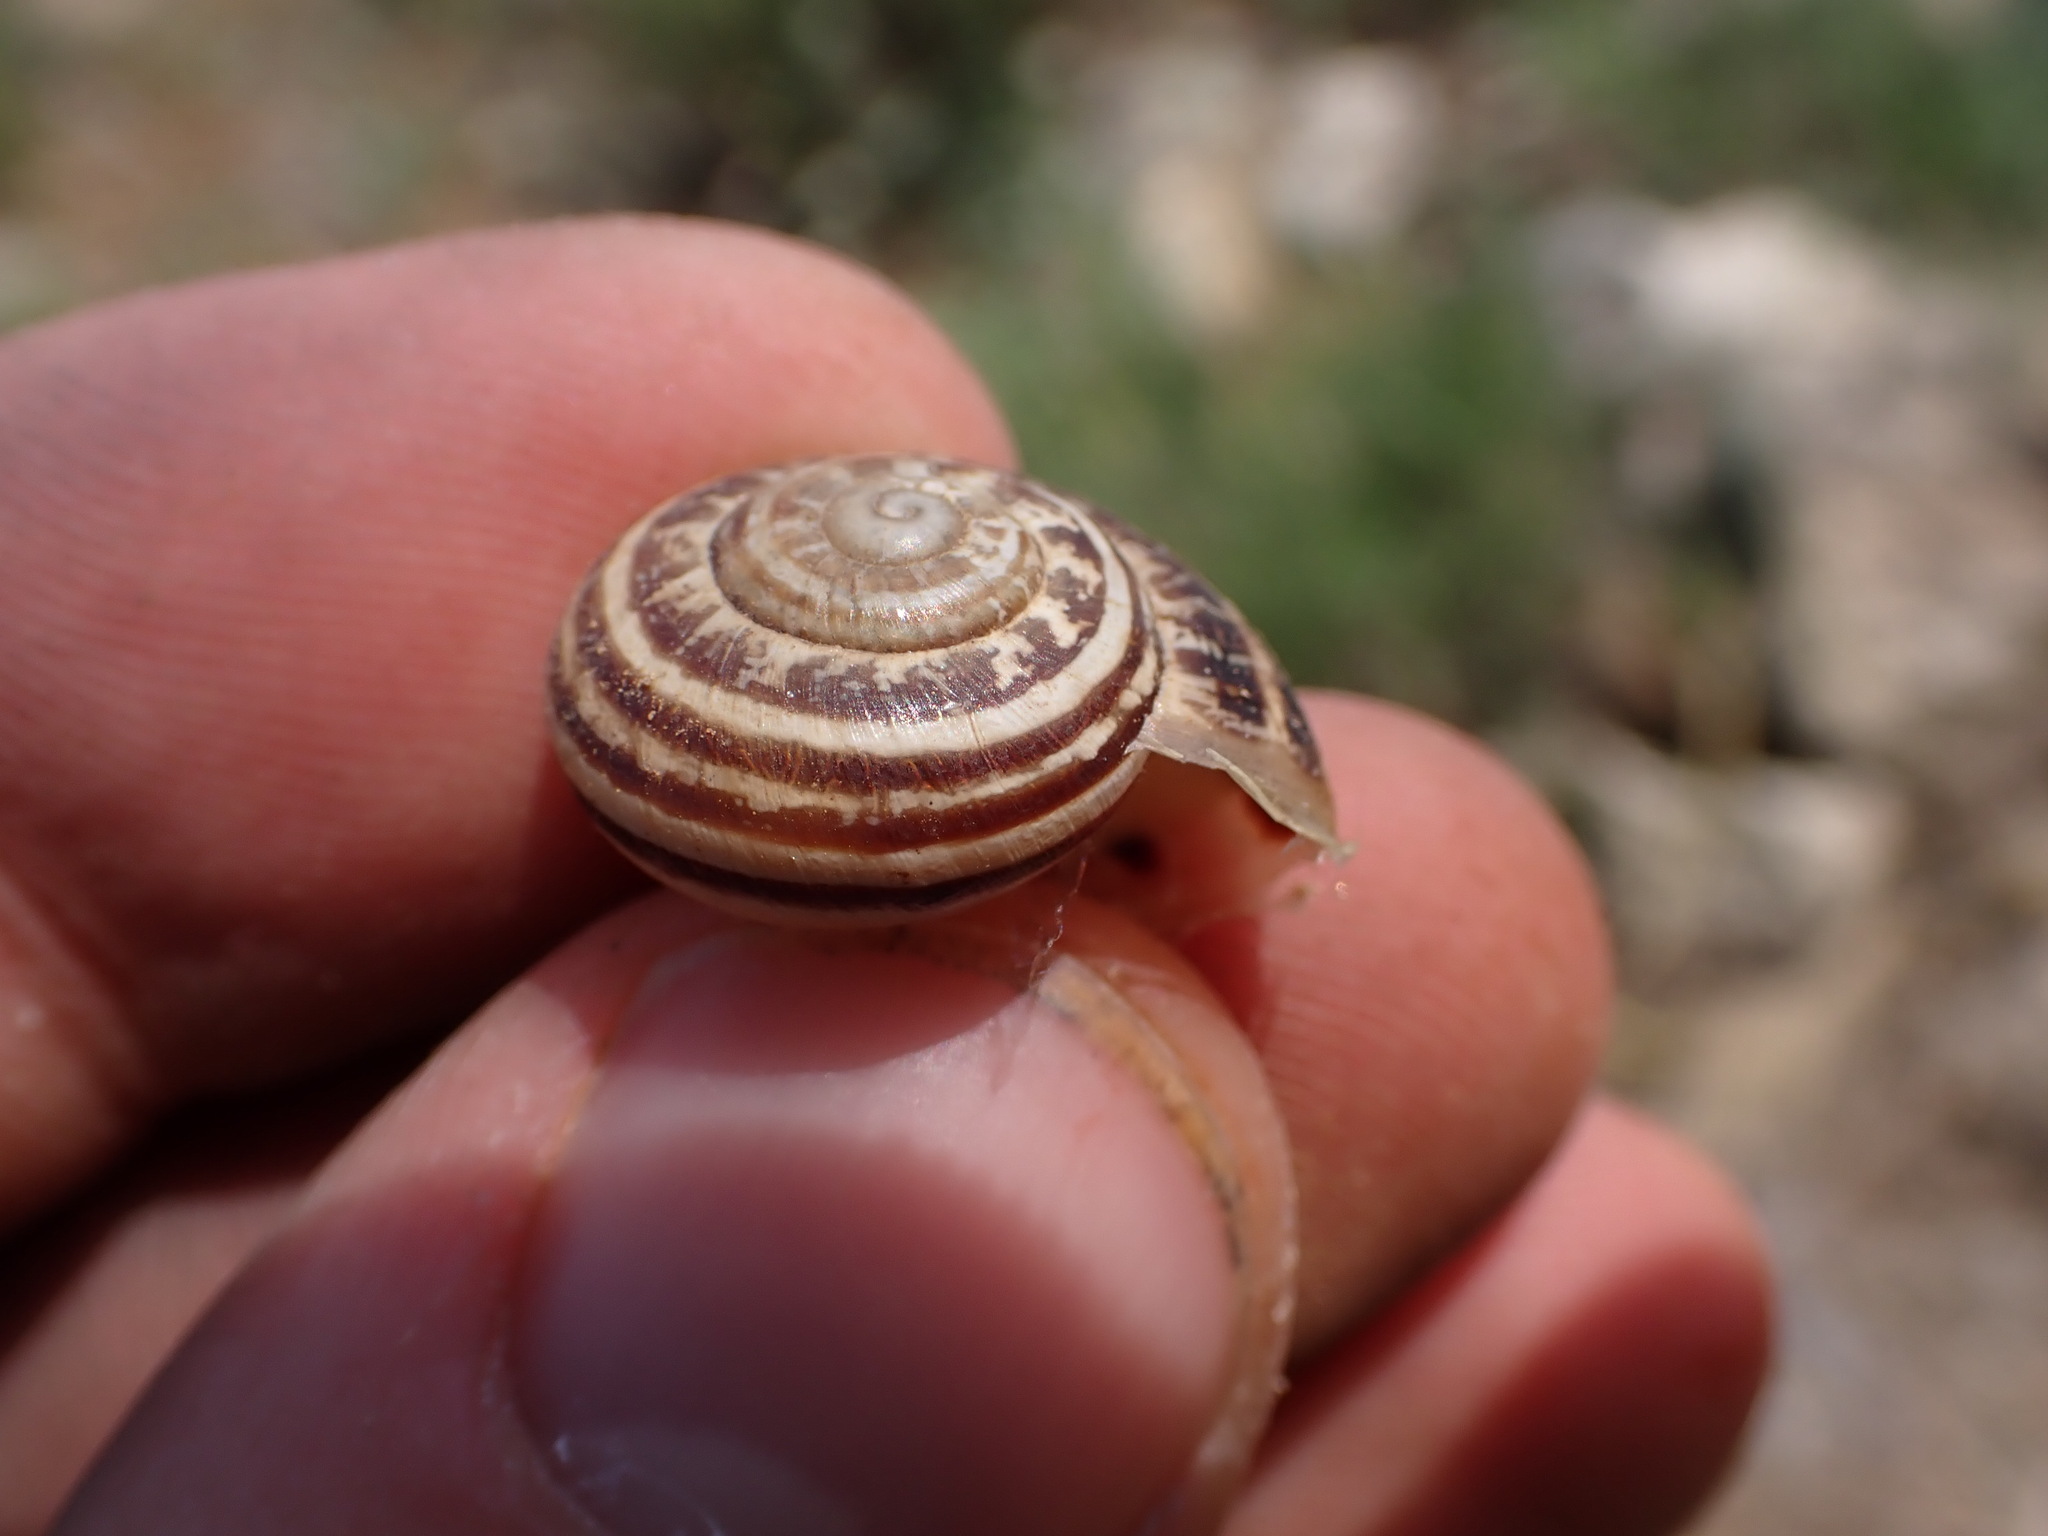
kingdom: Animalia
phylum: Mollusca
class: Gastropoda
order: Stylommatophora
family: Helicidae
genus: Eobania
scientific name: Eobania vermiculata
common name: Chocolateband snail
